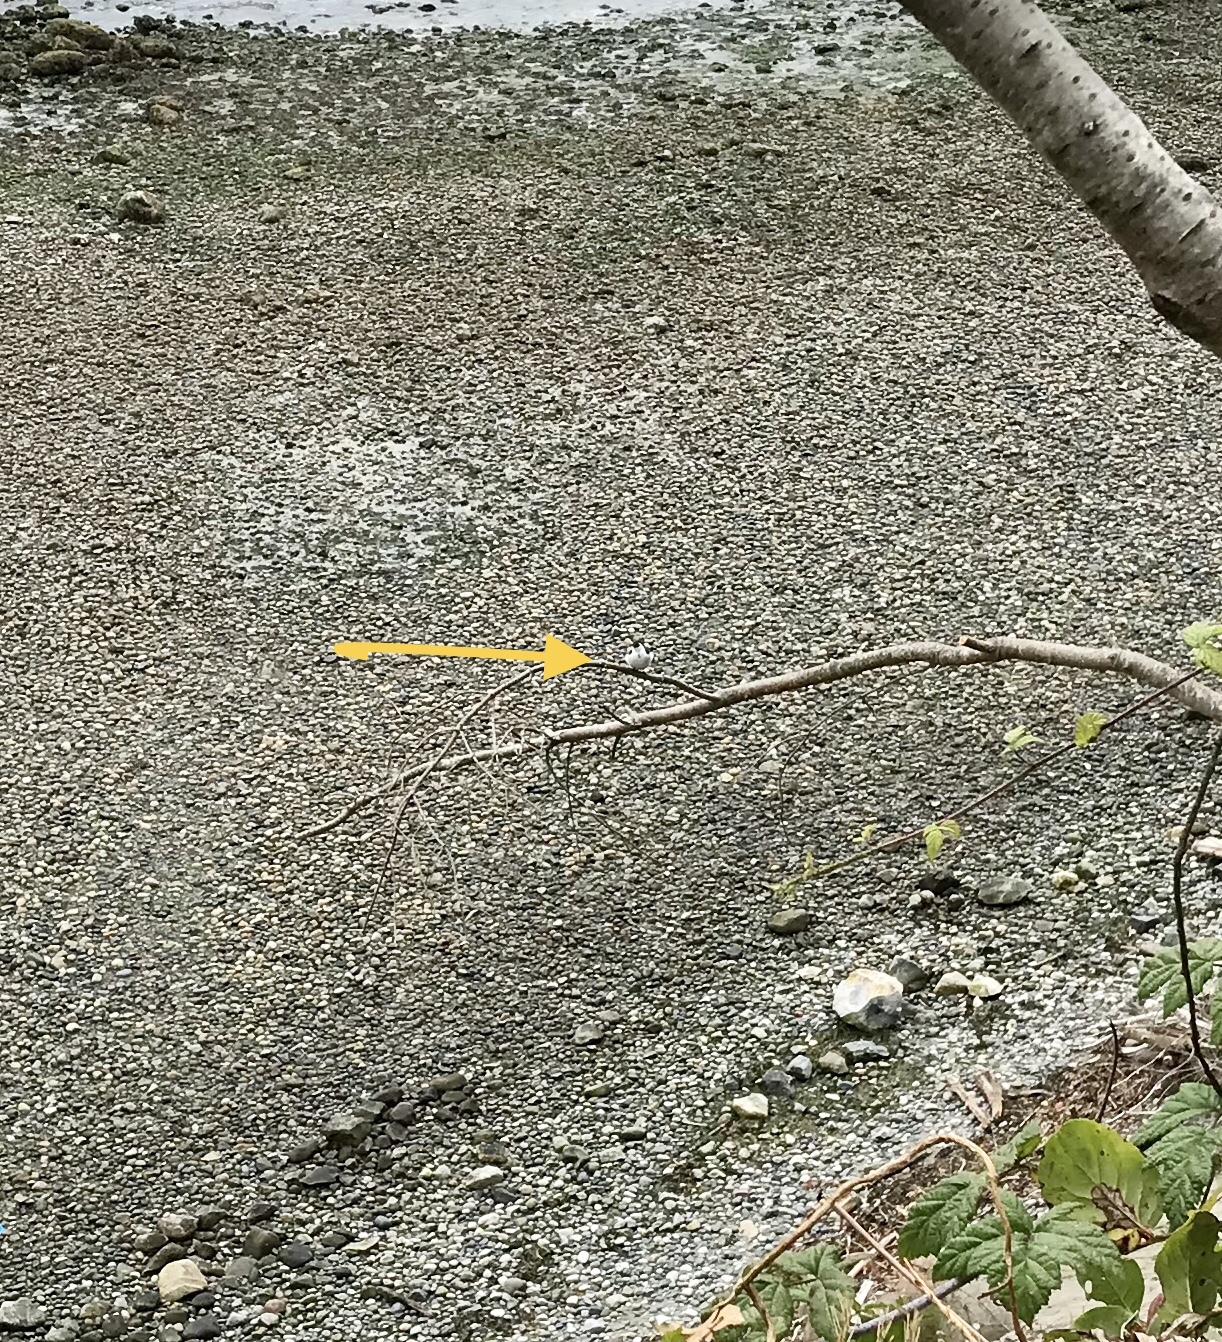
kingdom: Animalia
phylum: Chordata
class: Aves
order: Passeriformes
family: Hirundinidae
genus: Tachycineta
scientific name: Tachycineta thalassina
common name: Violet-green swallow
